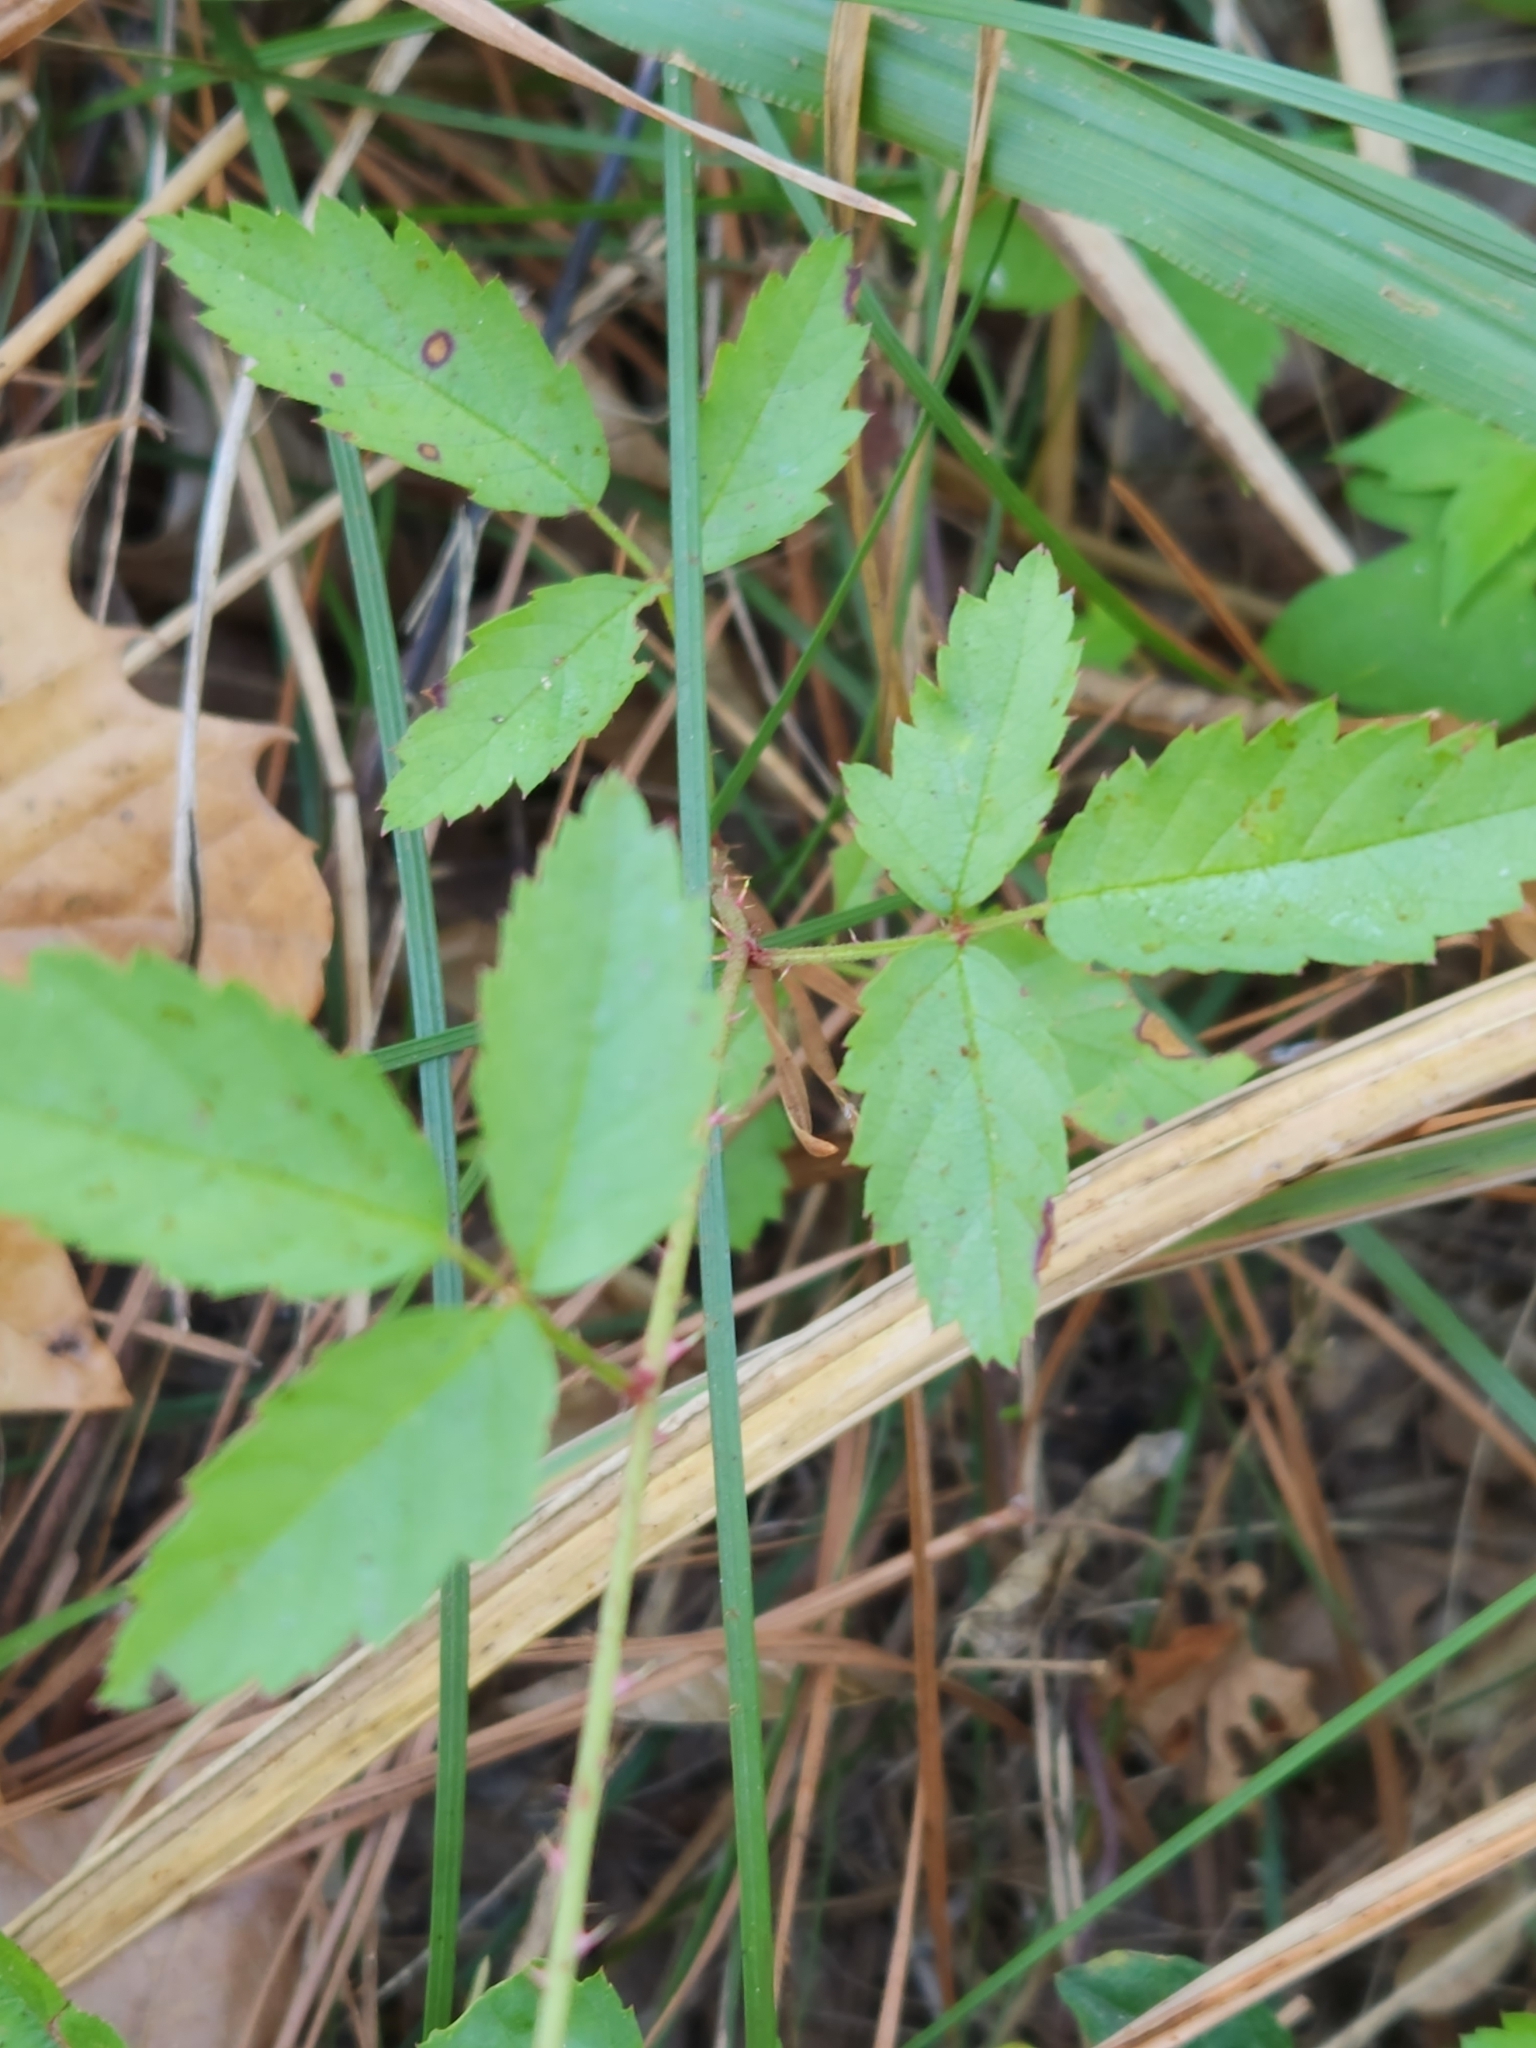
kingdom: Plantae
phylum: Tracheophyta
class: Magnoliopsida
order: Rosales
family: Rosaceae
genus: Rubus
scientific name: Rubus trivialis
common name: Southern dewberry
